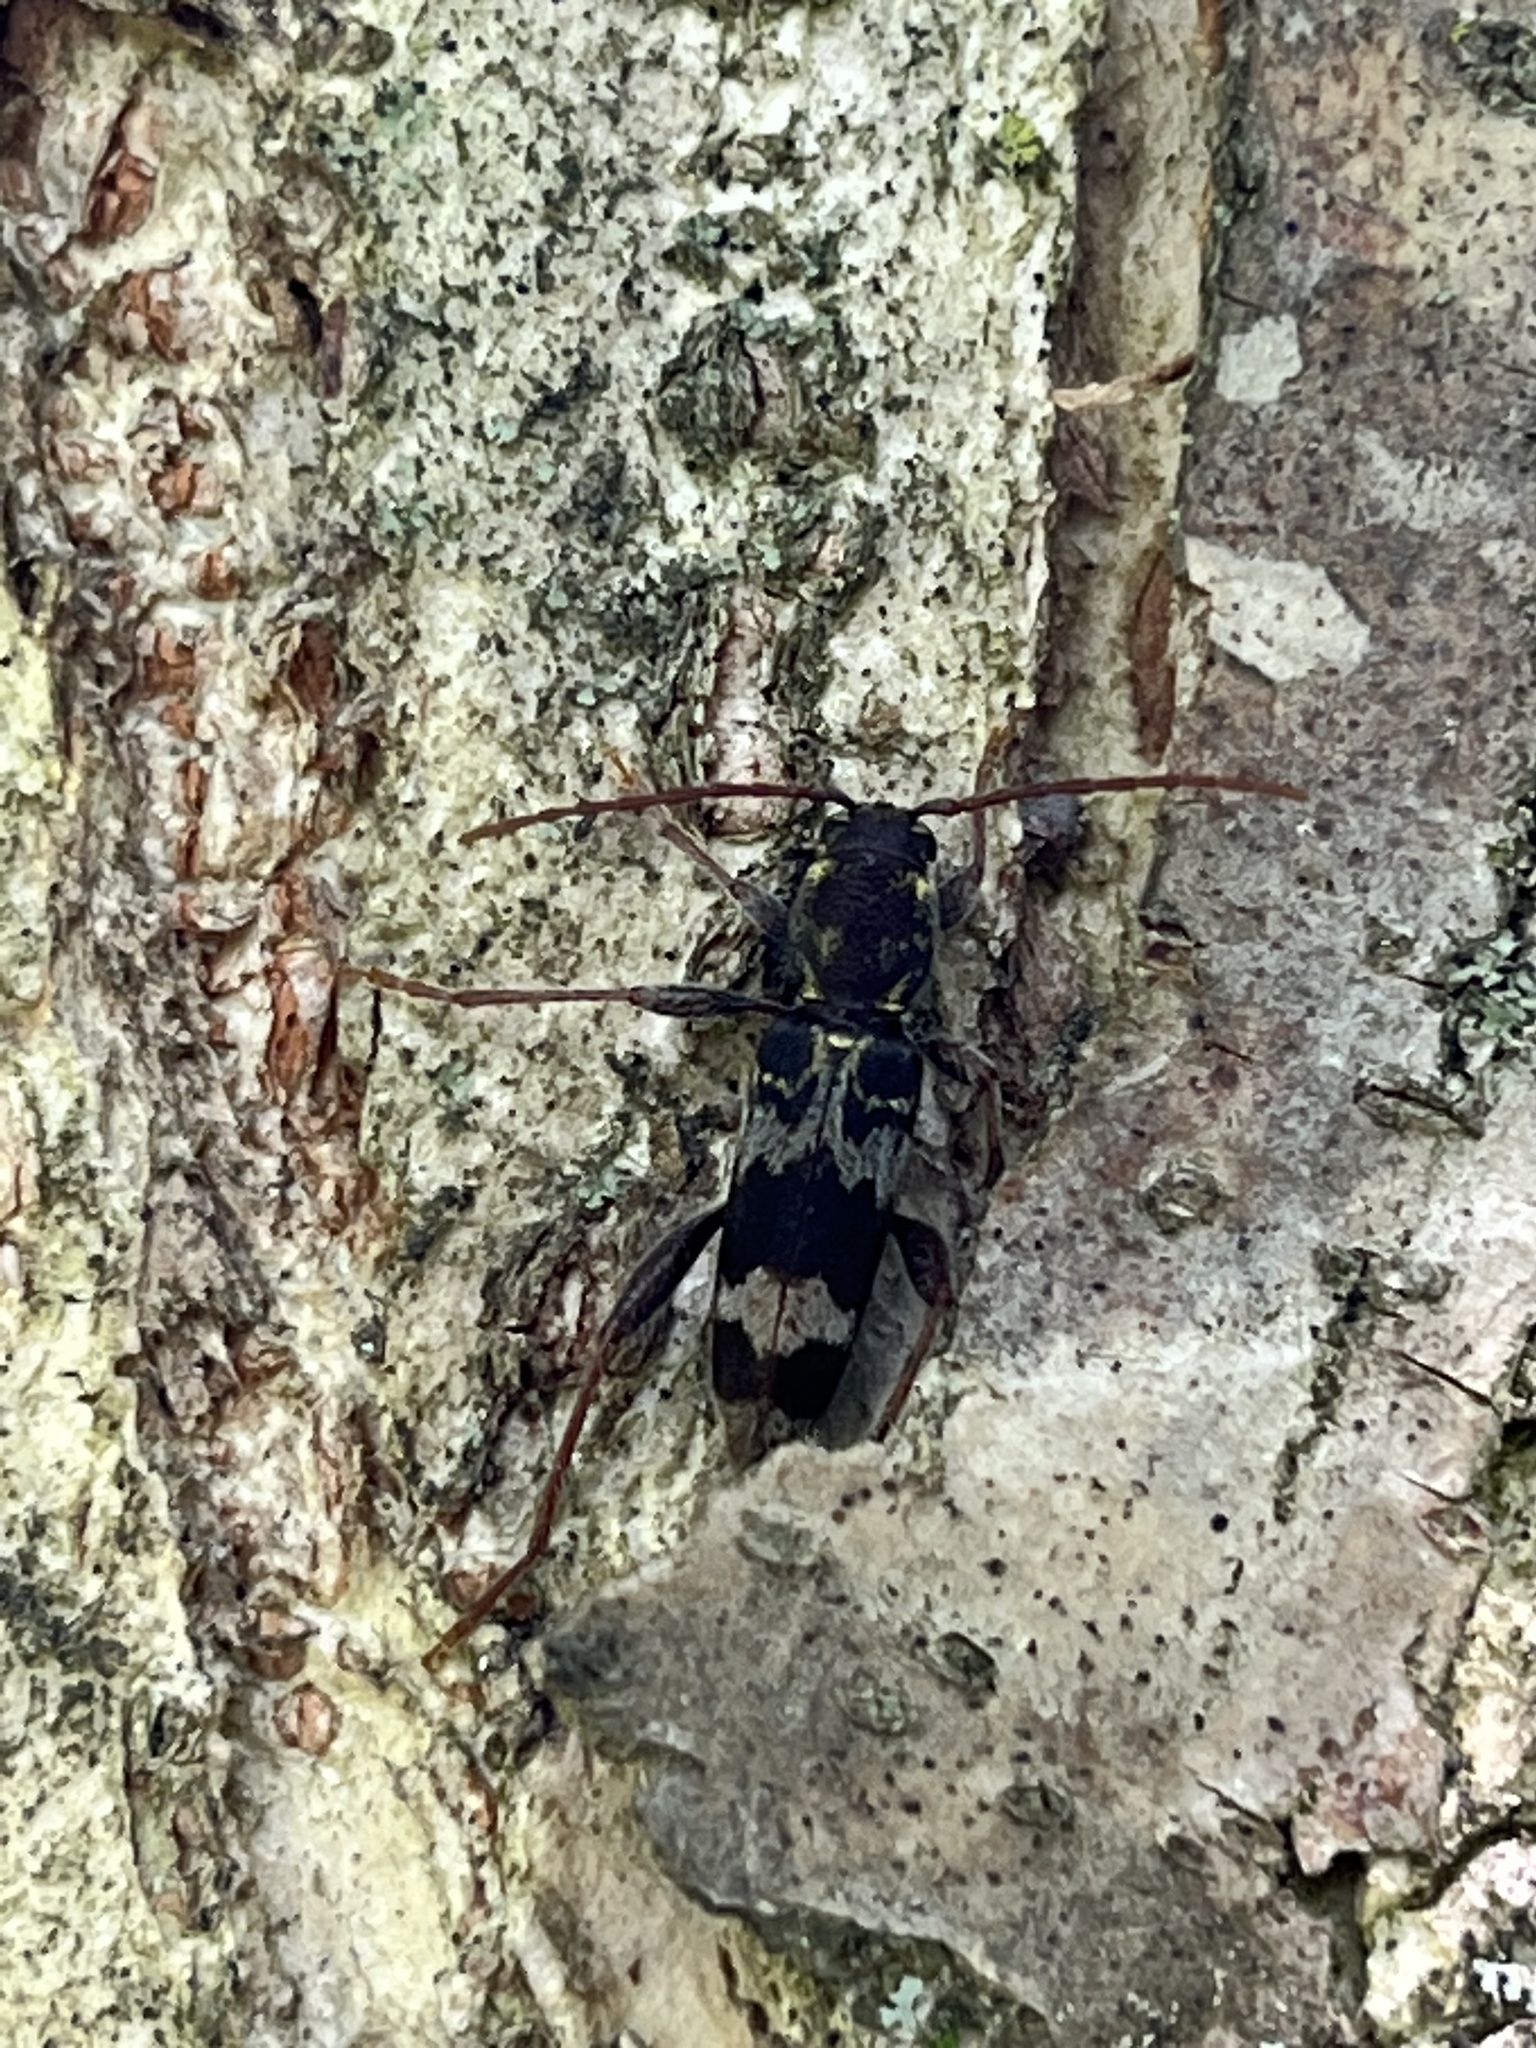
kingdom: Animalia
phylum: Arthropoda
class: Insecta
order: Coleoptera
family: Cerambycidae
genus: Xylotrechus
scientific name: Xylotrechus colonus
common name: Long-horned beetle
